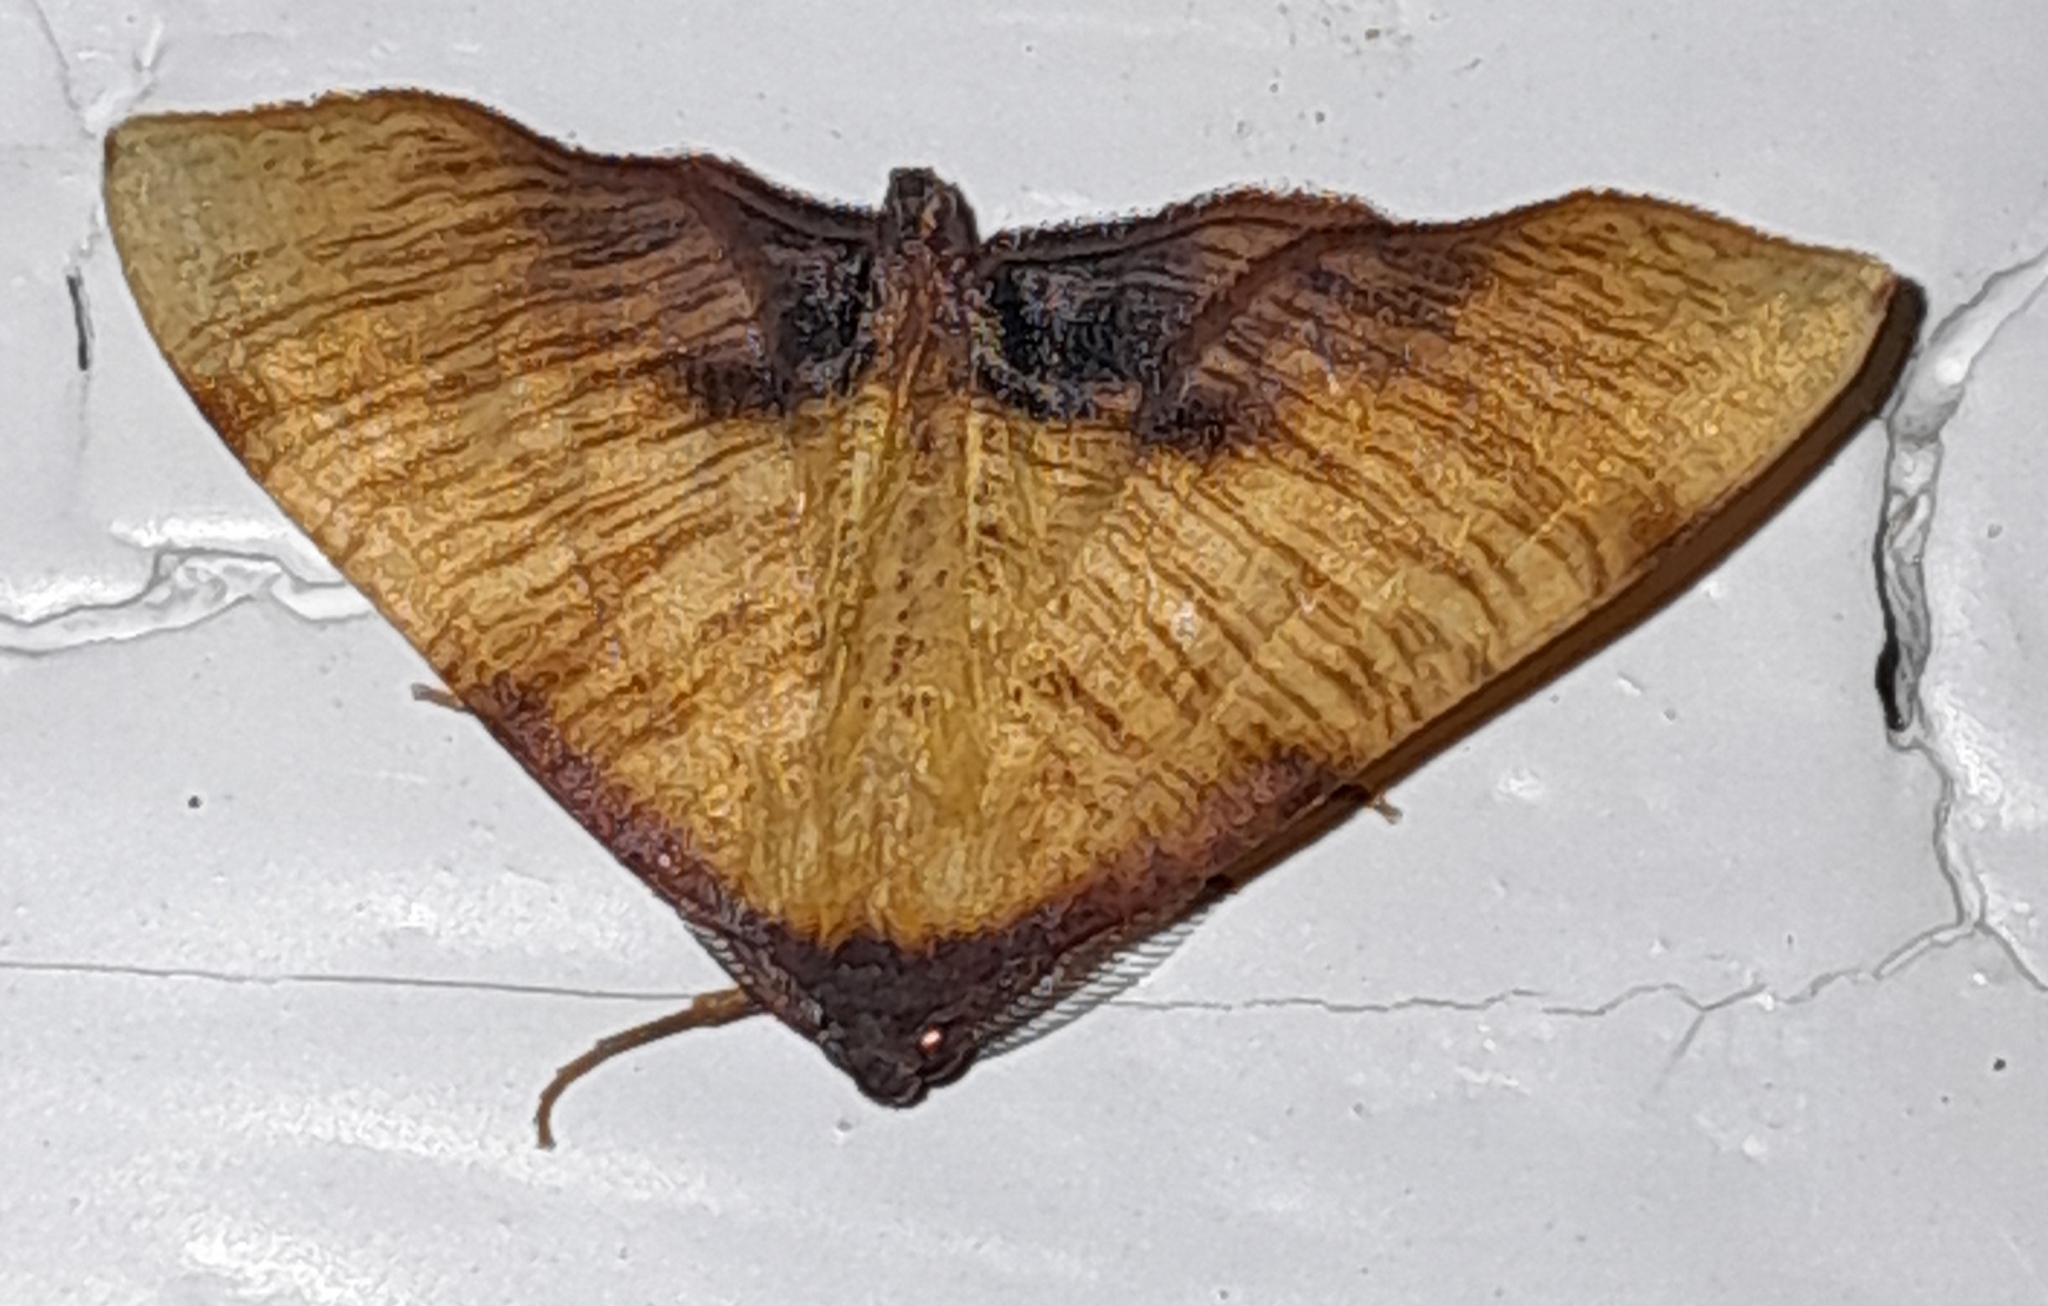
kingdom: Animalia
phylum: Arthropoda
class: Insecta
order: Lepidoptera
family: Geometridae
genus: Plagodis
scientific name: Plagodis dolabraria
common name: Scorched wing
